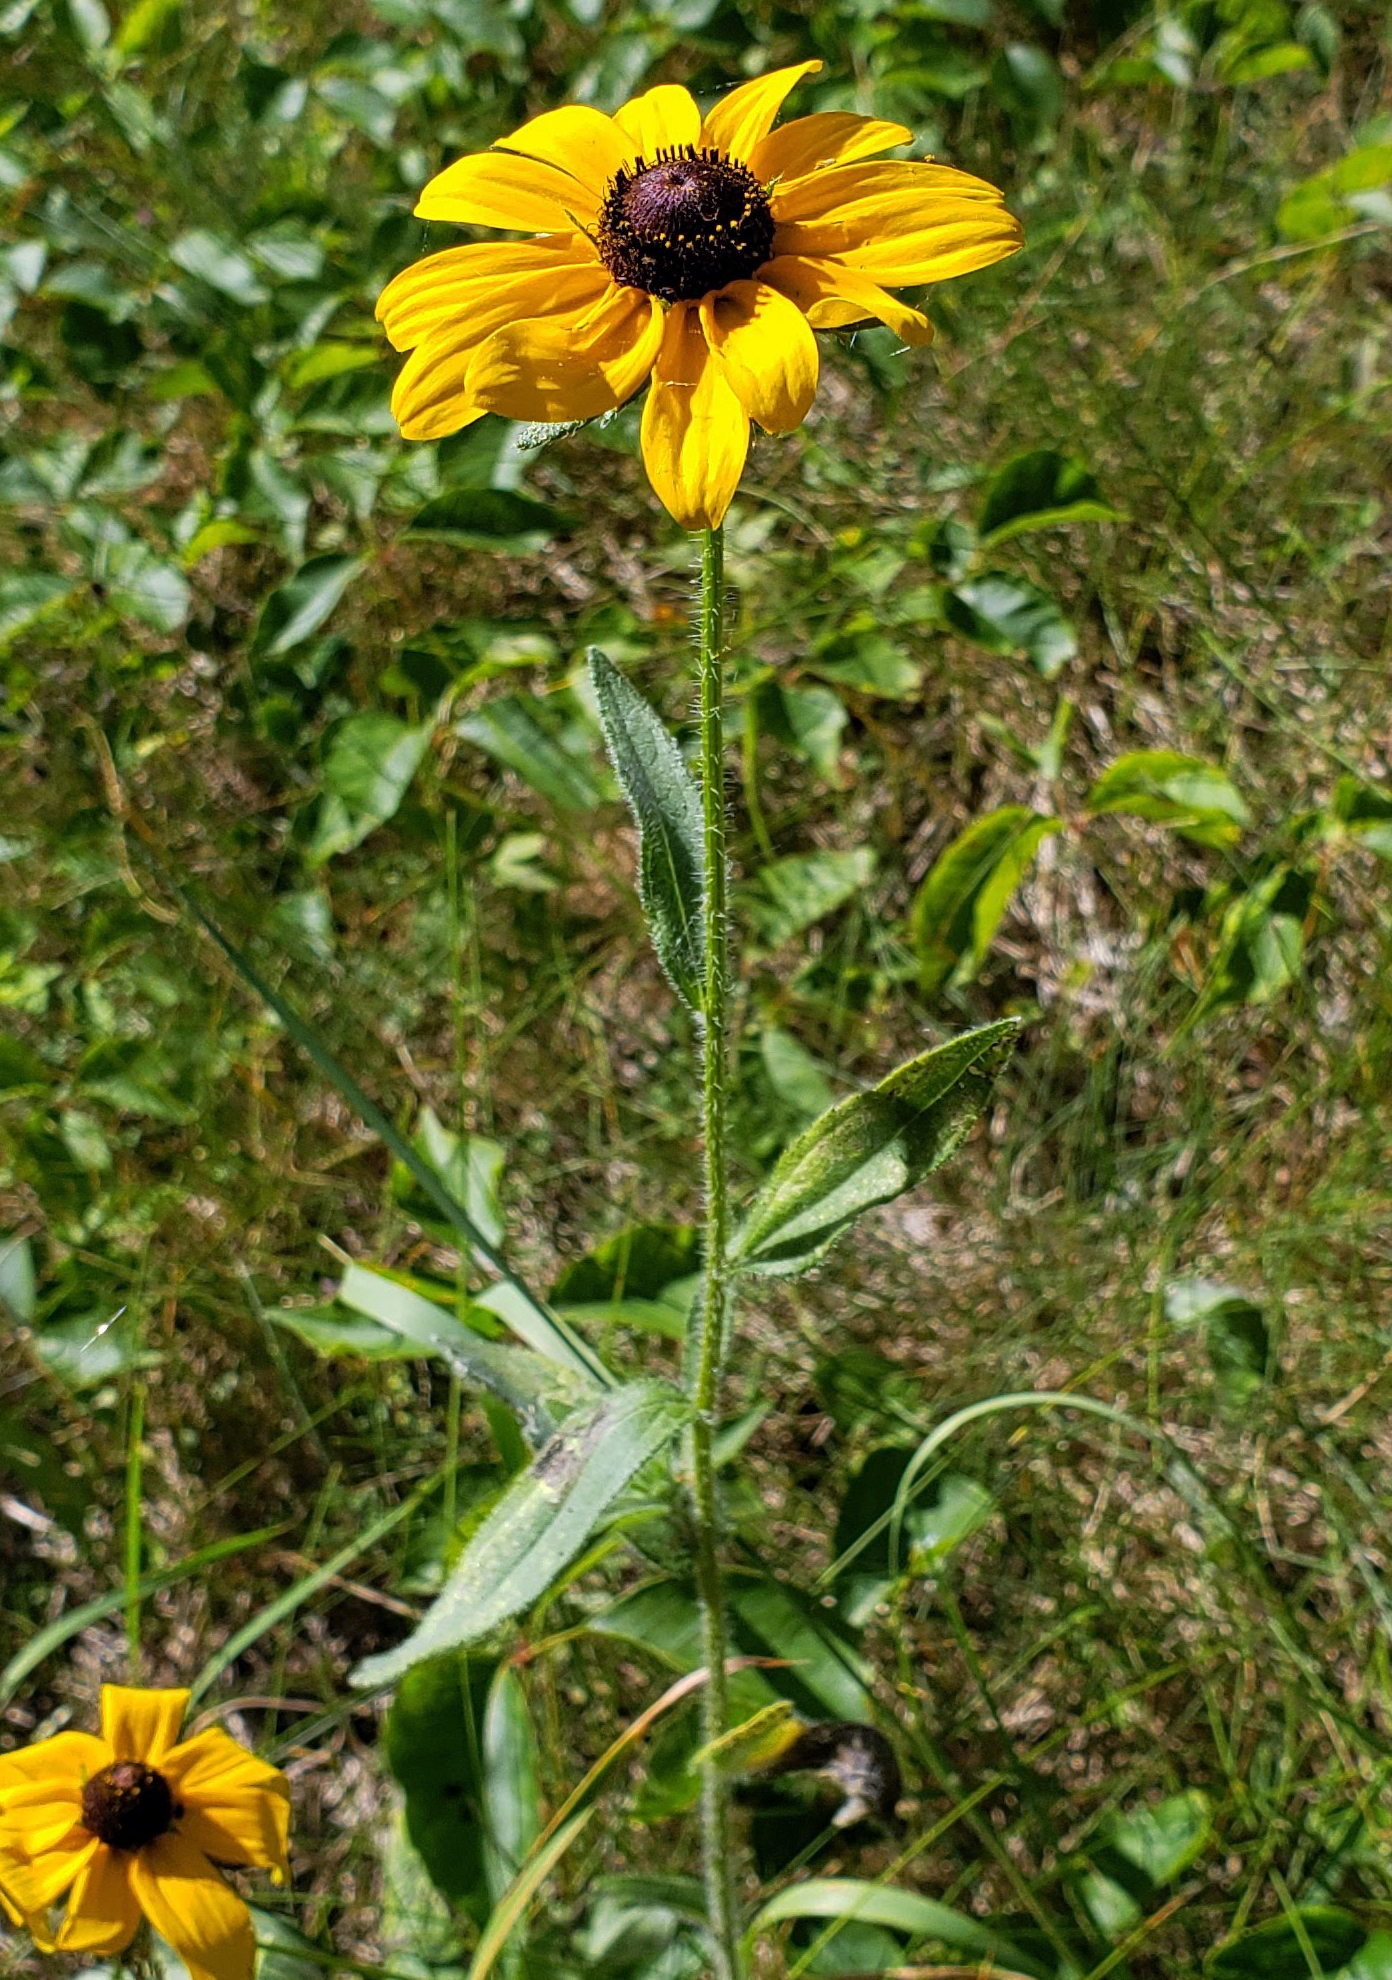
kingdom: Plantae
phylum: Tracheophyta
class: Magnoliopsida
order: Asterales
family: Asteraceae
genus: Rudbeckia
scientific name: Rudbeckia hirta
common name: Black-eyed-susan
